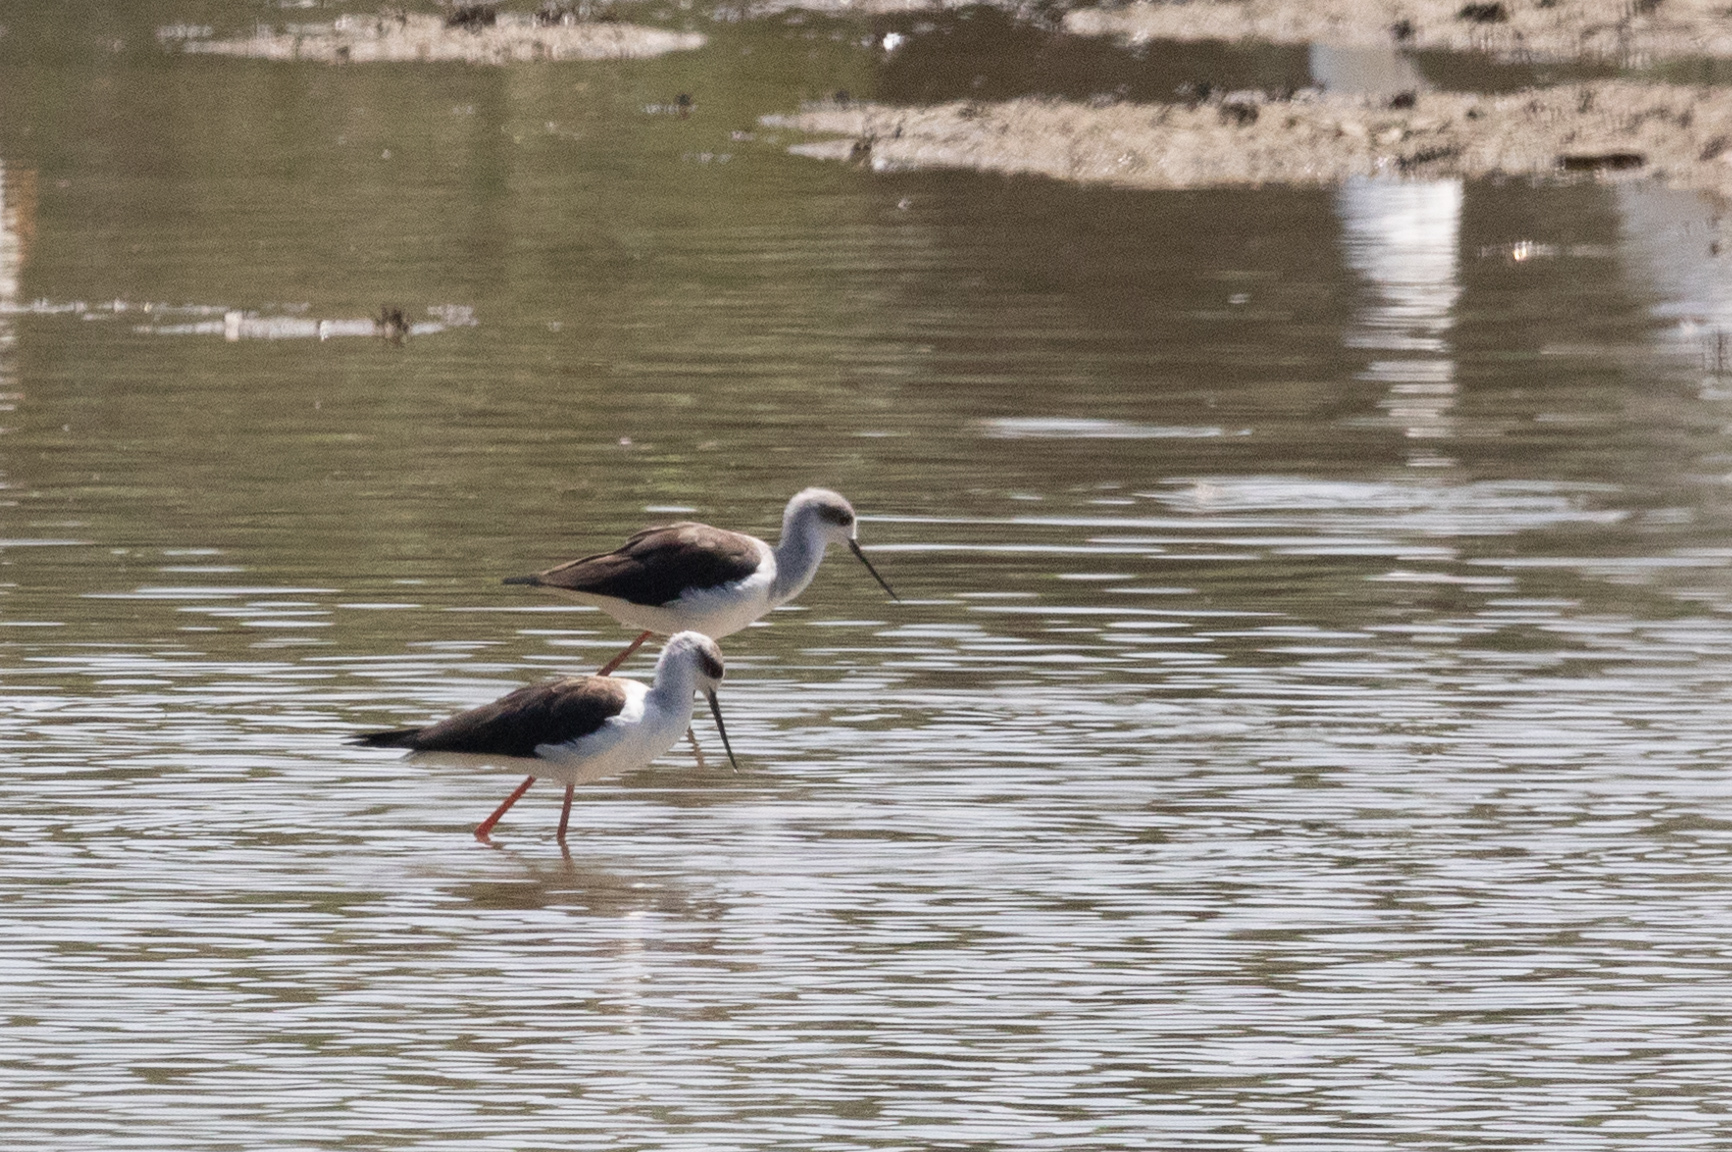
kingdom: Animalia
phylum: Chordata
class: Aves
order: Charadriiformes
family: Recurvirostridae
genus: Himantopus
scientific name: Himantopus himantopus
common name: Black-winged stilt
